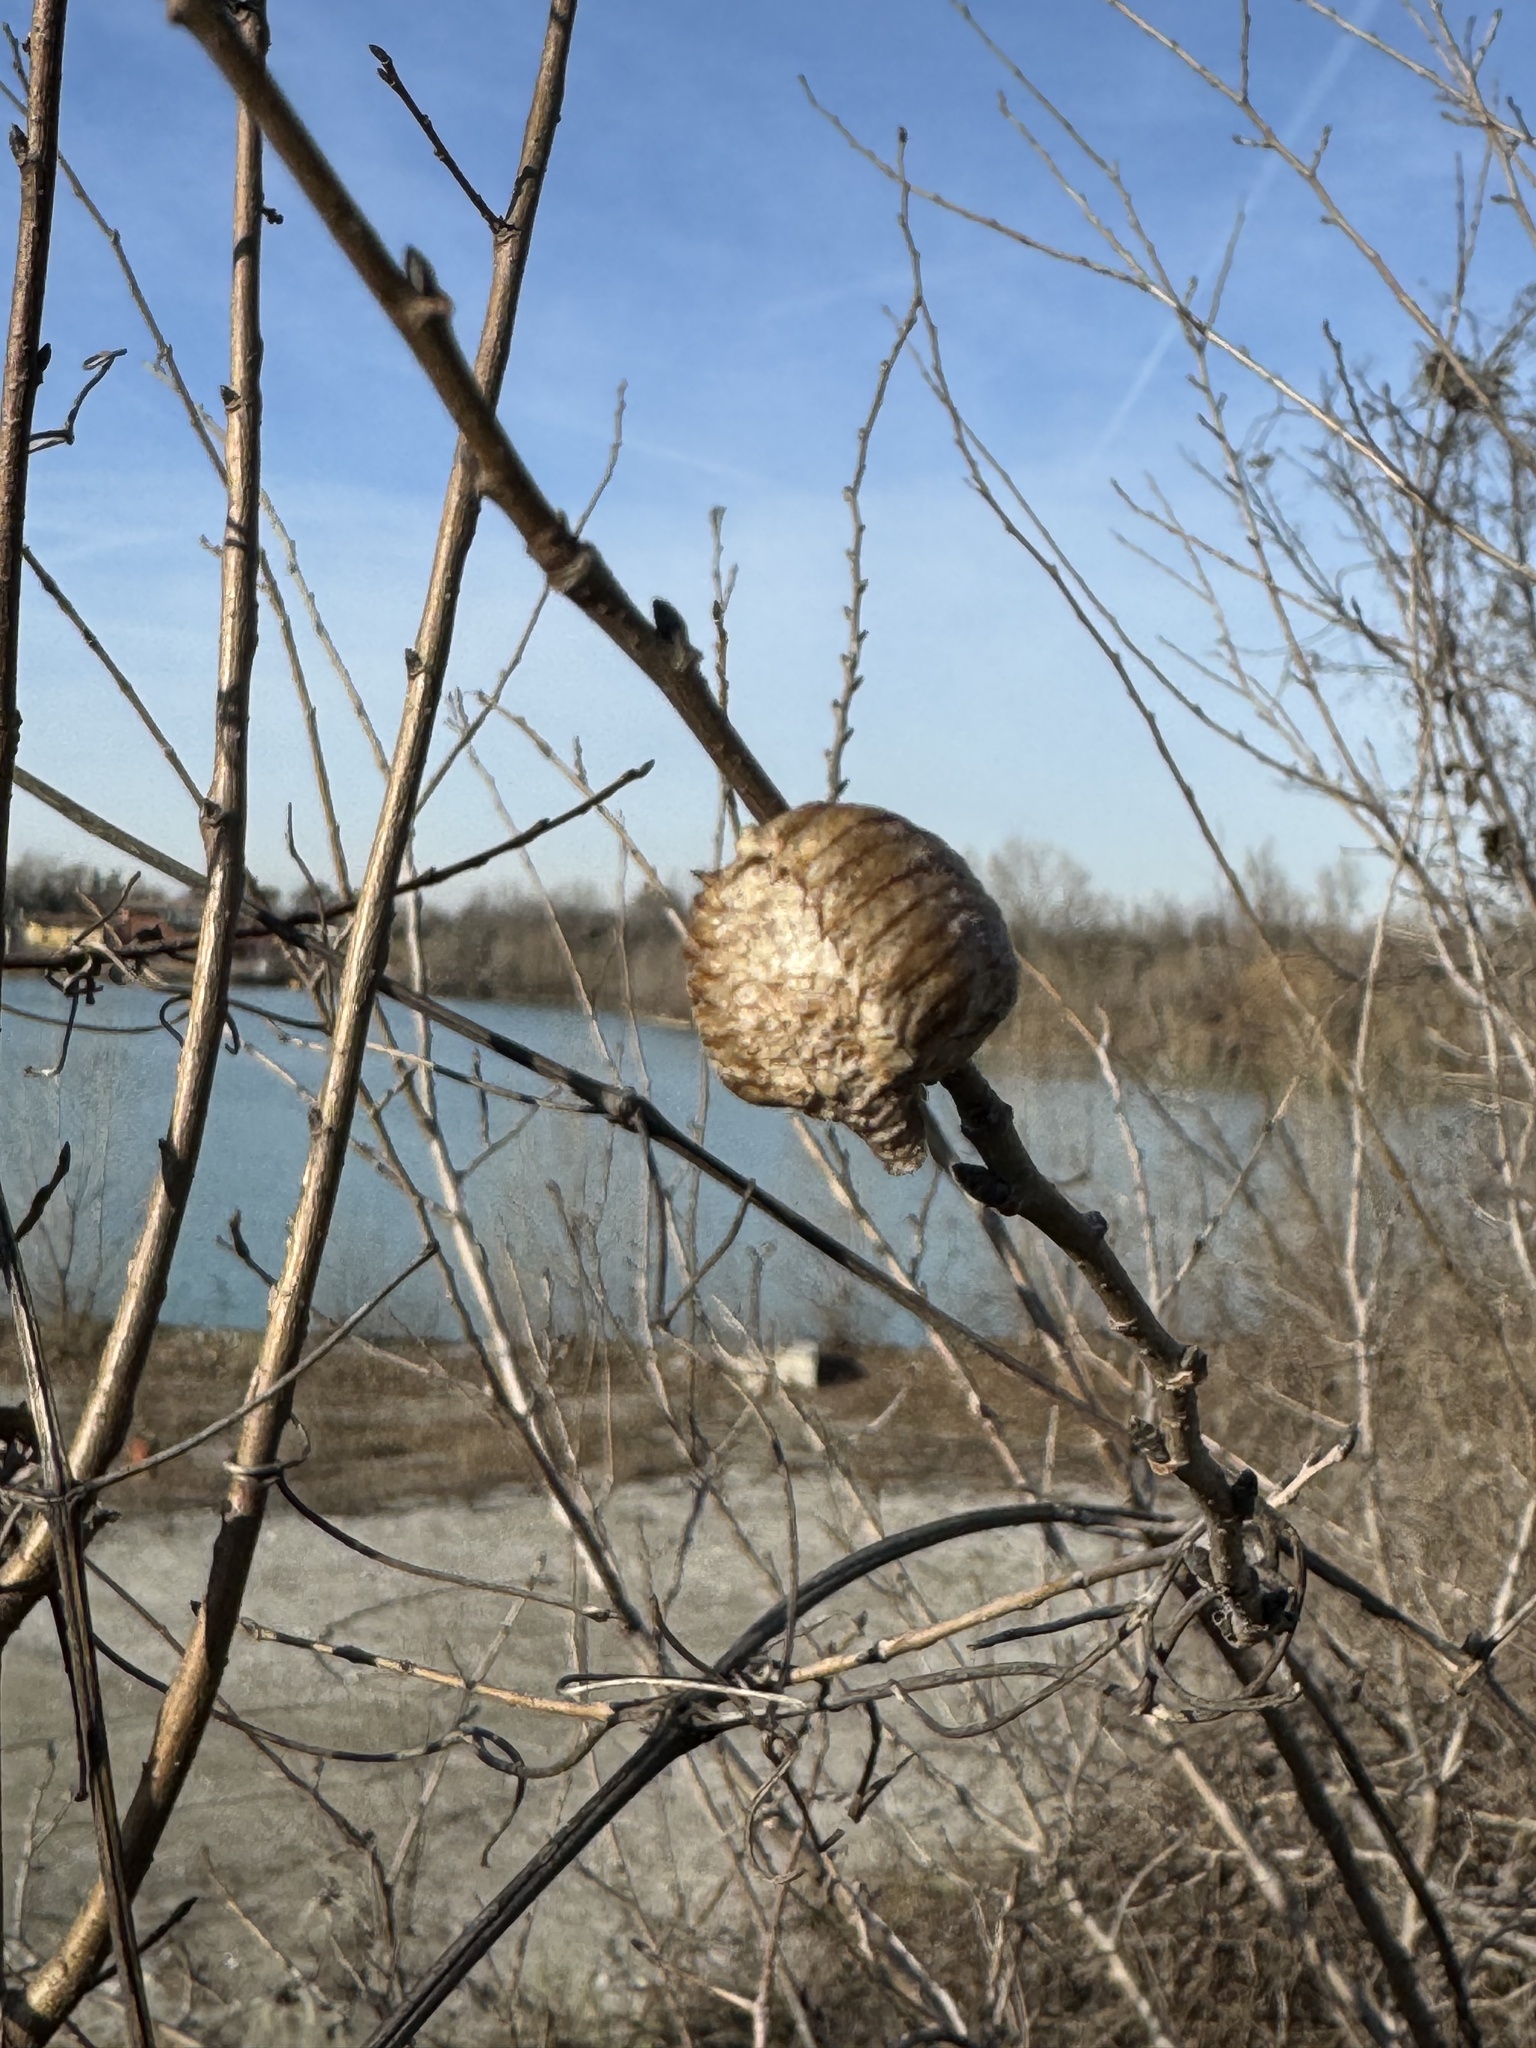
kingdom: Animalia
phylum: Arthropoda
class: Insecta
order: Mantodea
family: Mantidae
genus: Hierodula
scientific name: Hierodula transcaucasica
